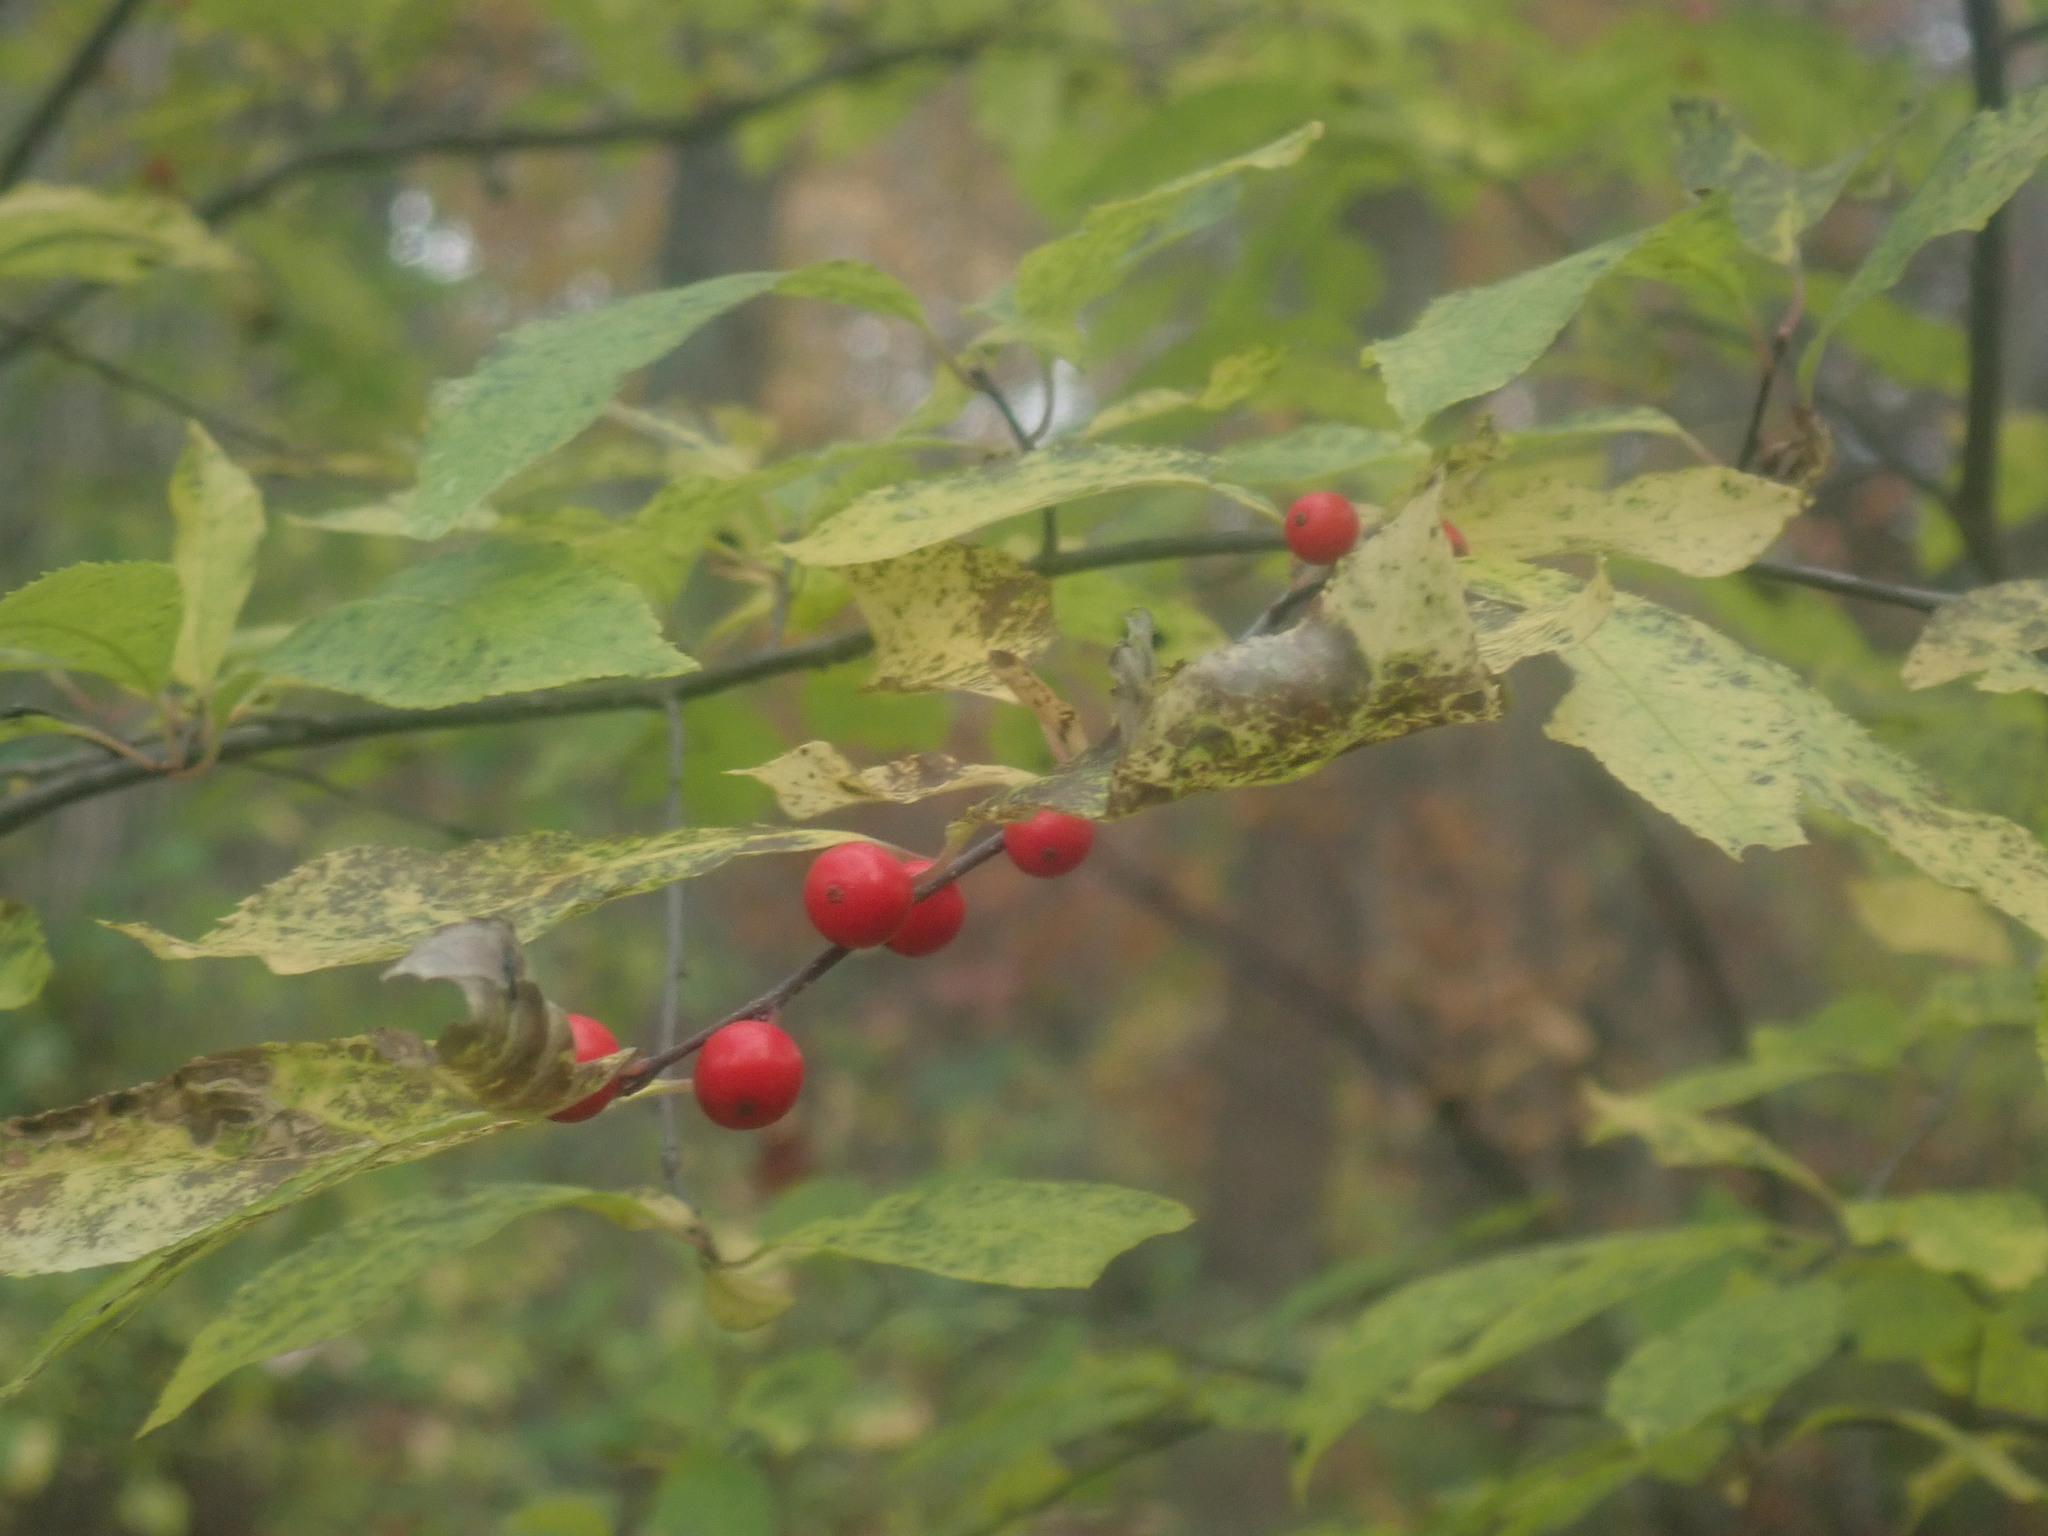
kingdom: Plantae
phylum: Tracheophyta
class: Magnoliopsida
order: Aquifoliales
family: Aquifoliaceae
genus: Ilex
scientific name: Ilex verticillata
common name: Virginia winterberry
